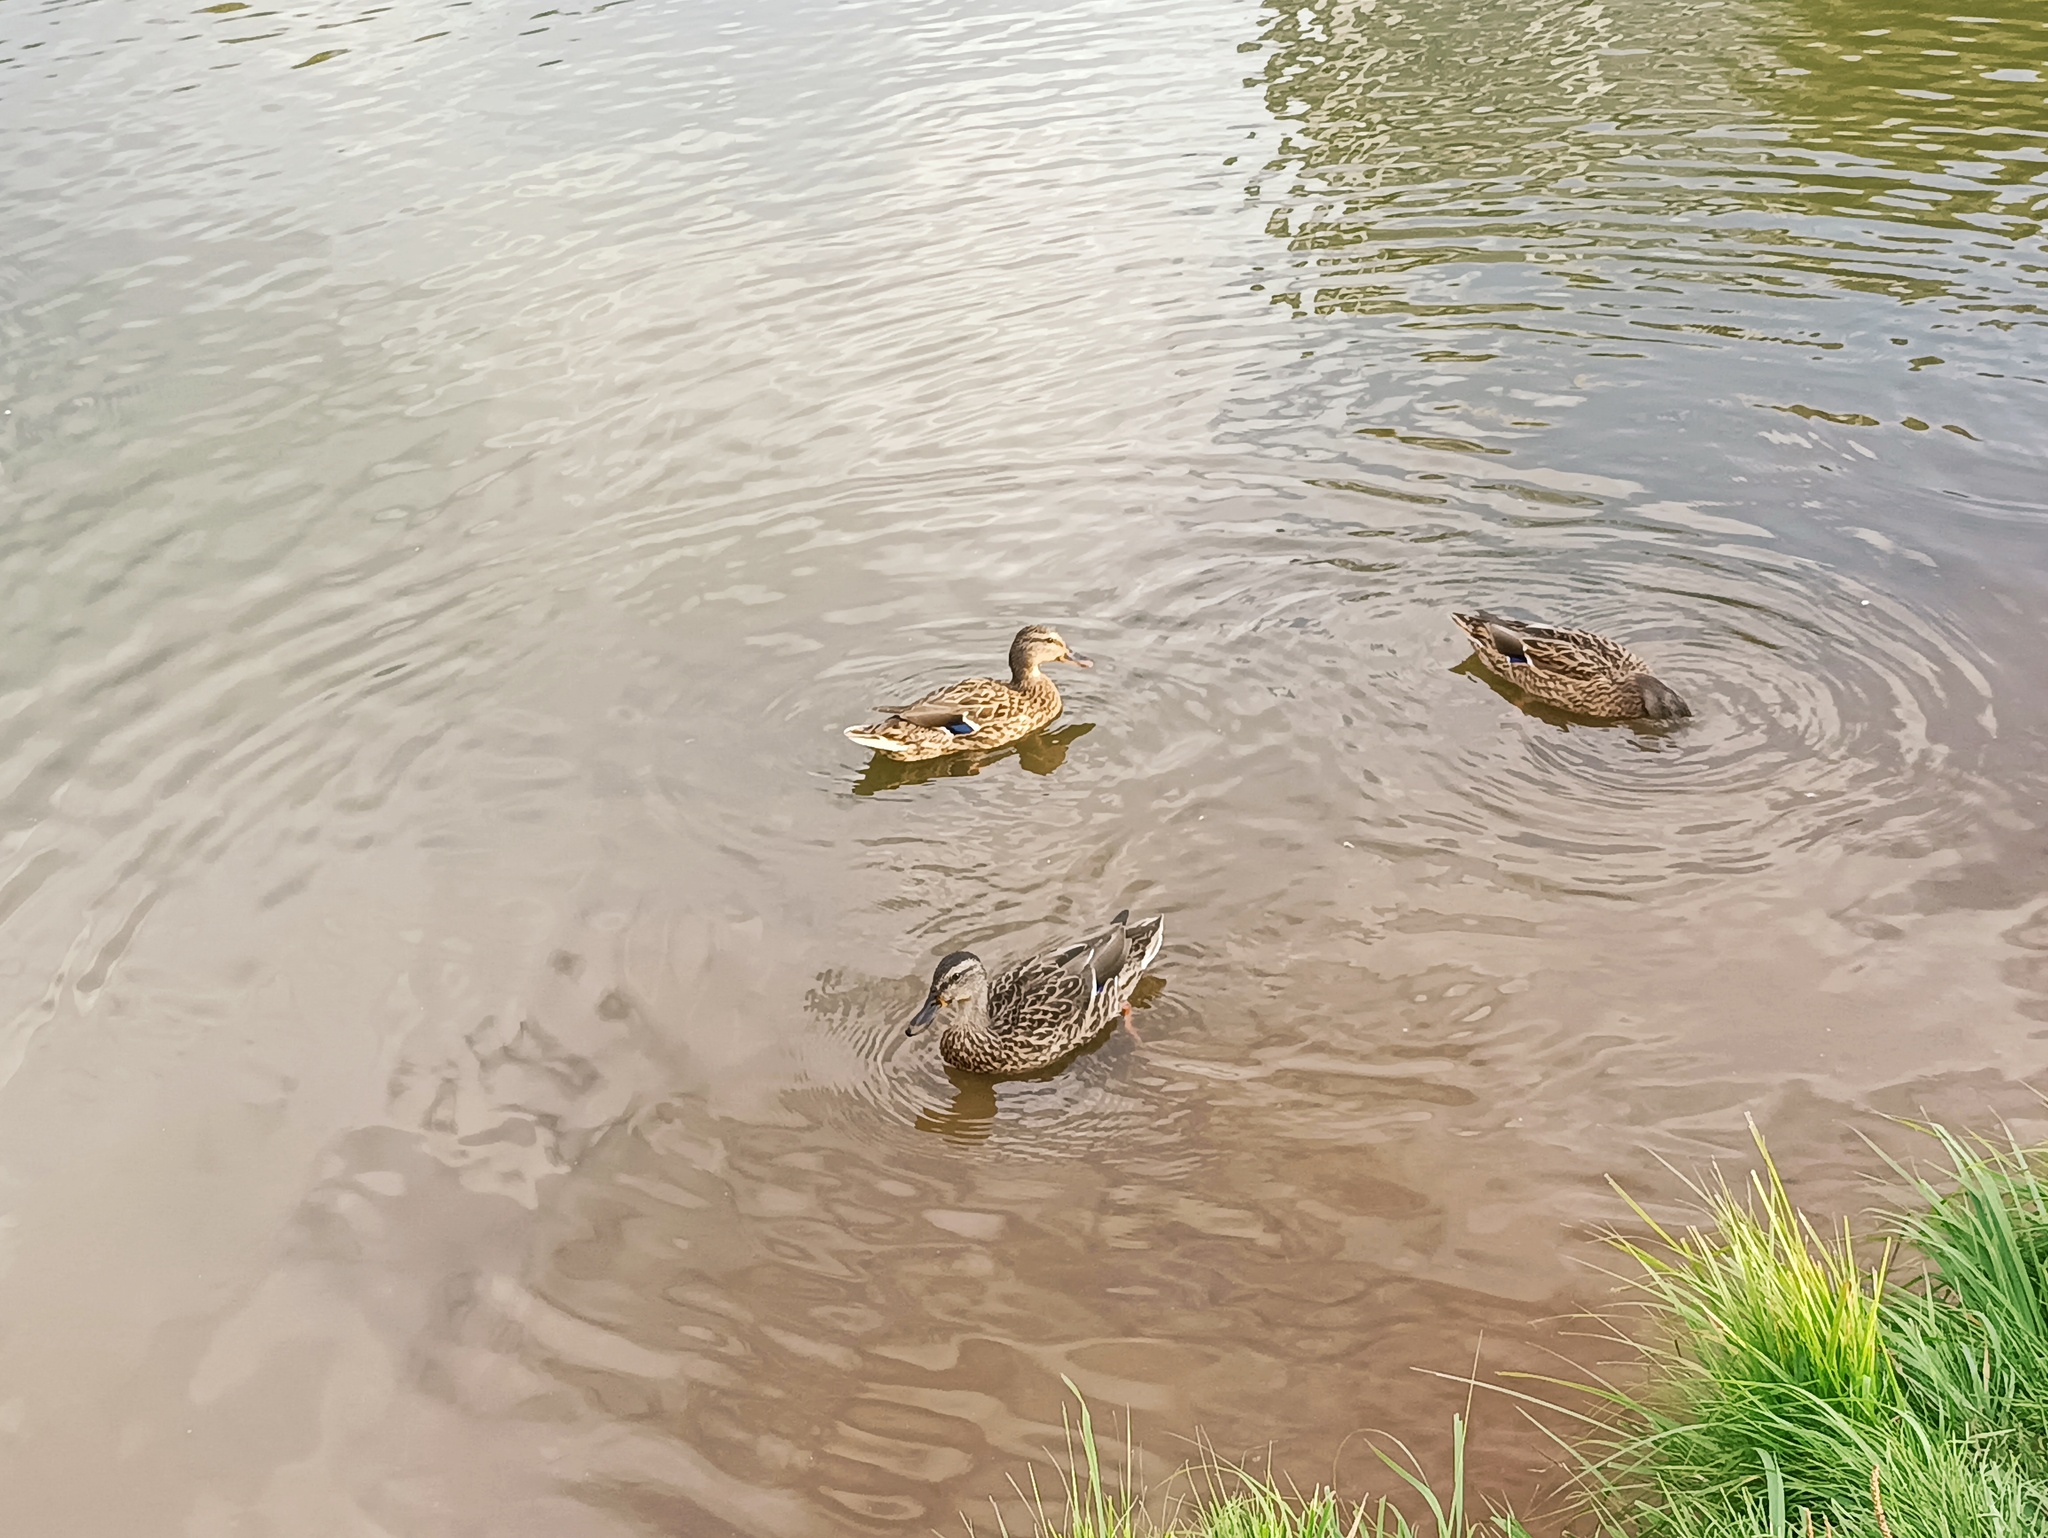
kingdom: Animalia
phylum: Chordata
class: Aves
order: Anseriformes
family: Anatidae
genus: Anas
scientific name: Anas platyrhynchos
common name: Mallard
